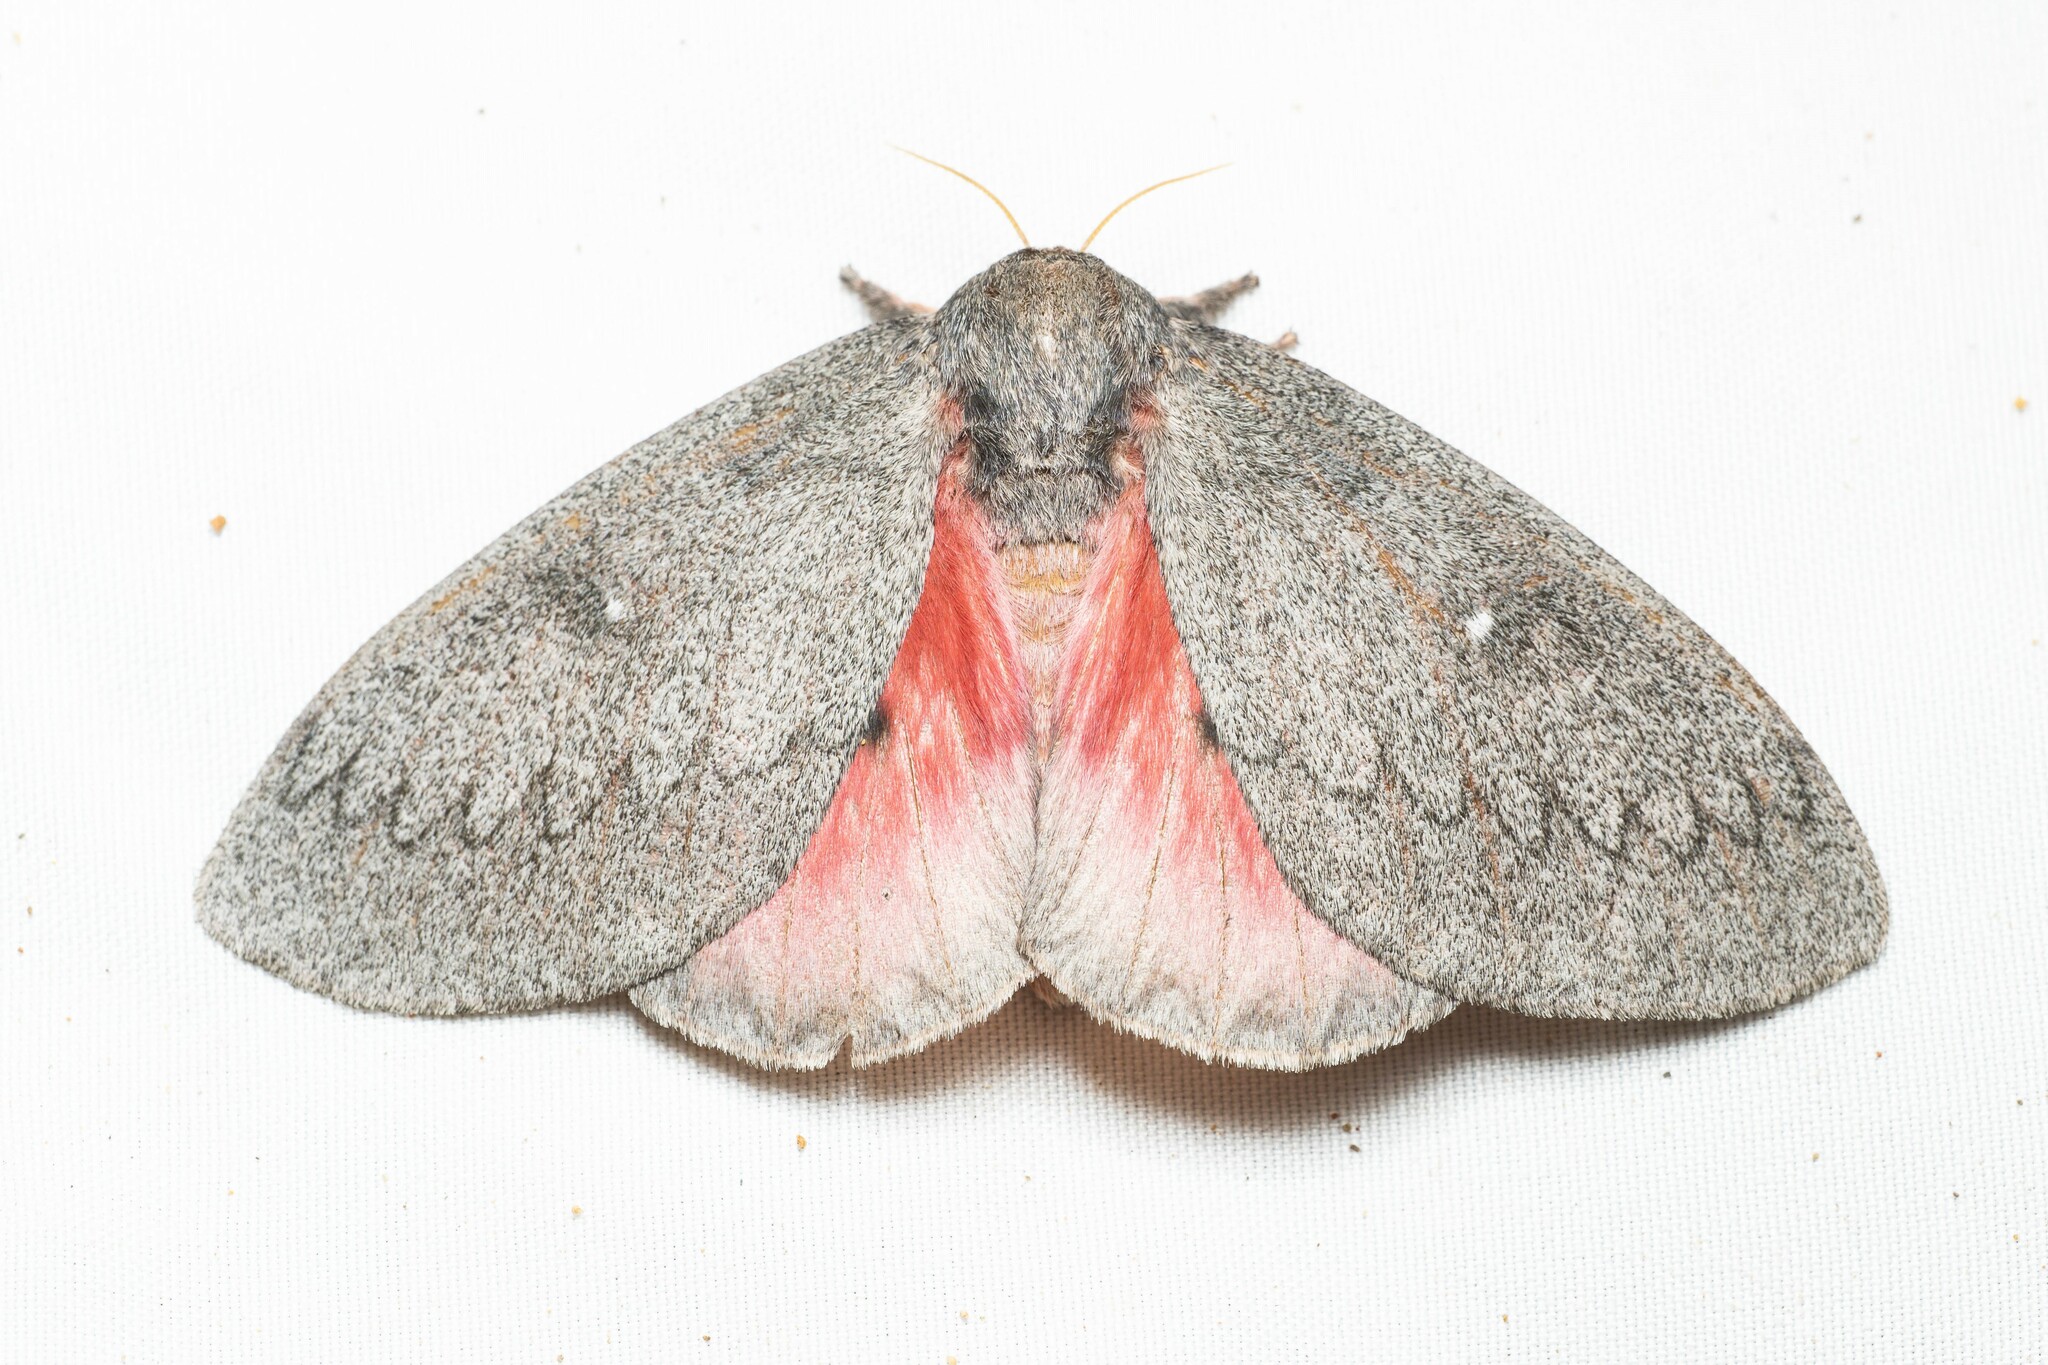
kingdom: Animalia
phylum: Arthropoda
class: Insecta
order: Lepidoptera
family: Saturniidae
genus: Syssphinx
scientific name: Syssphinx hubbardi
